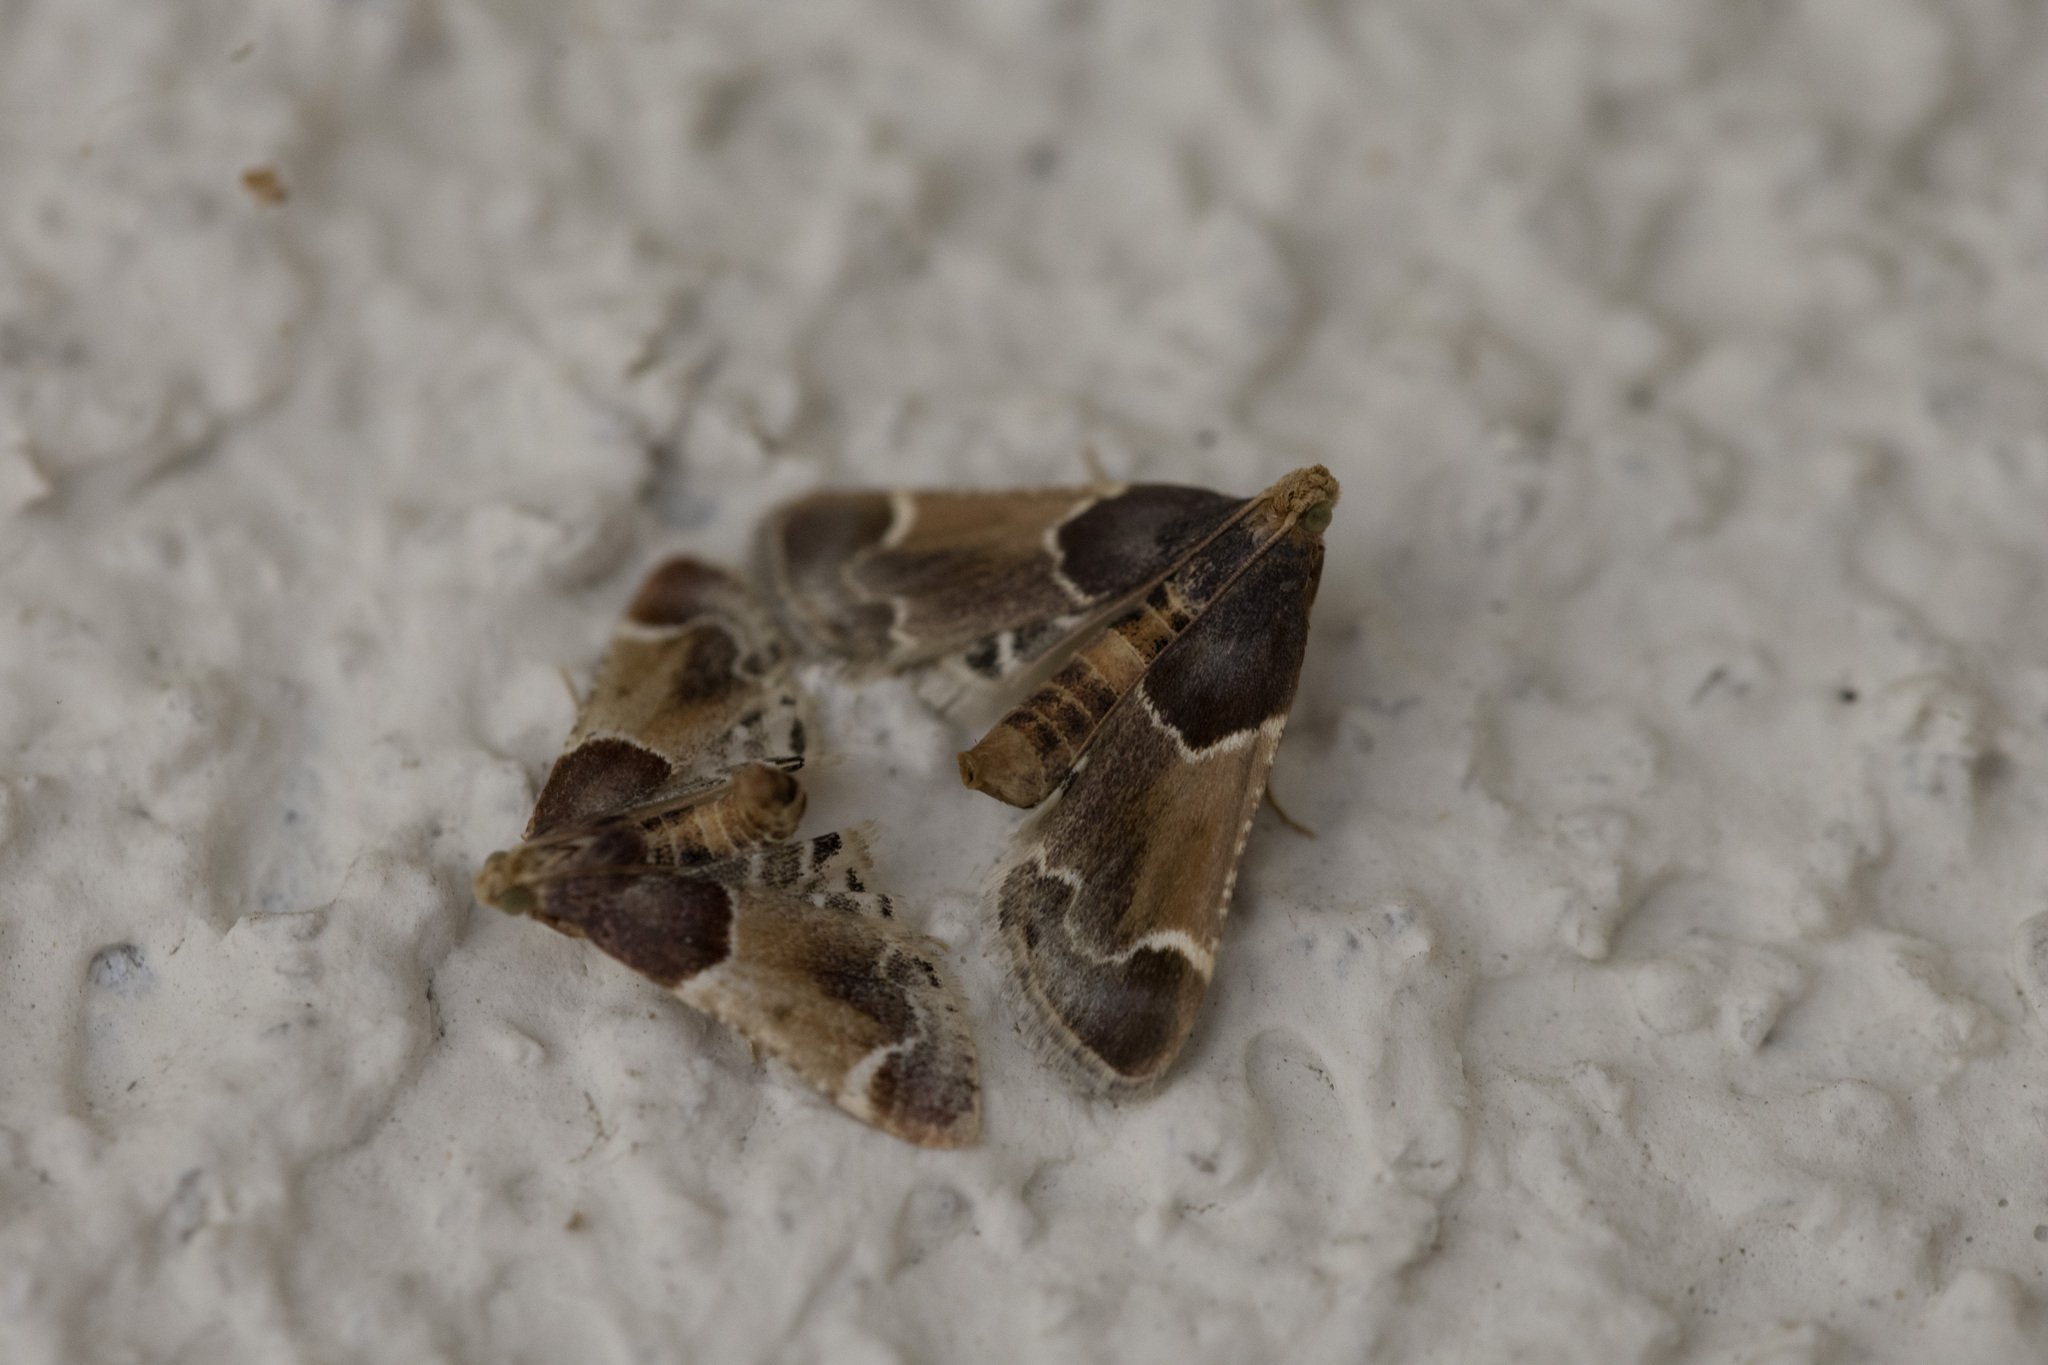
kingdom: Animalia
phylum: Arthropoda
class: Insecta
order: Lepidoptera
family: Pyralidae
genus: Pyralis
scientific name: Pyralis farinalis
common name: Meal moth
